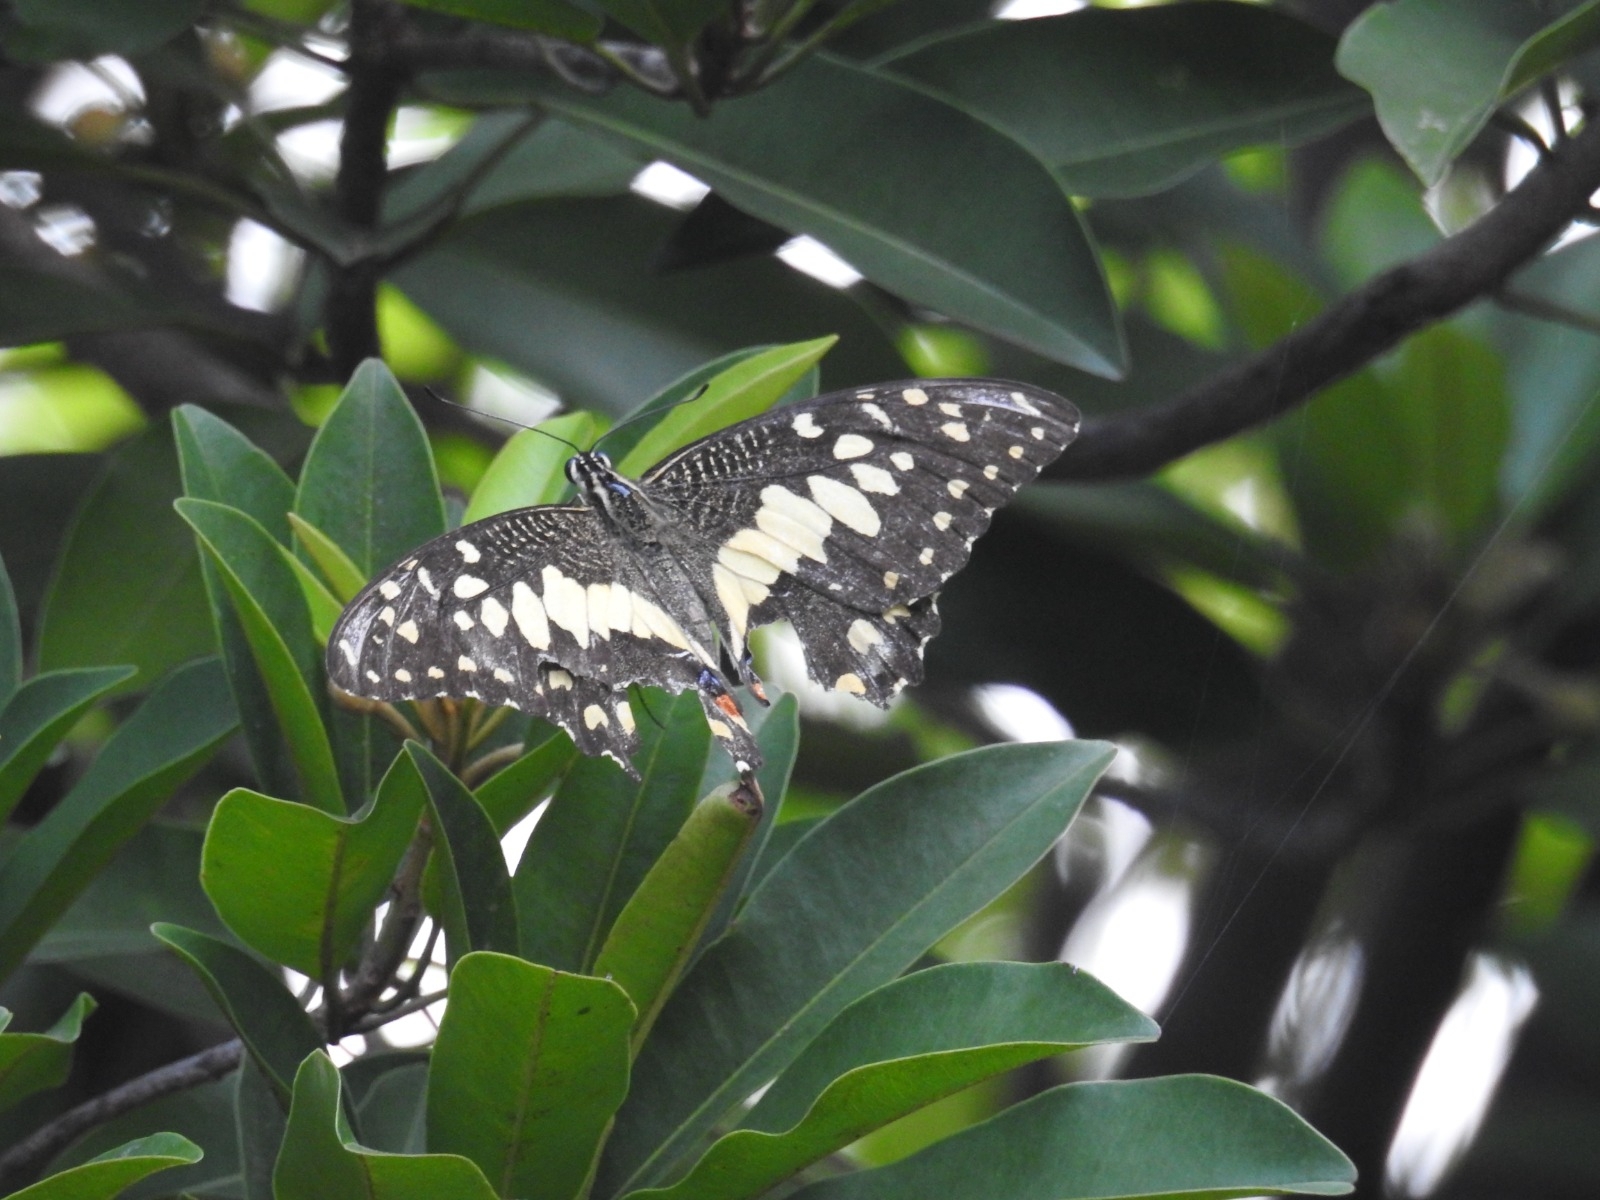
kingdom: Animalia
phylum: Arthropoda
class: Insecta
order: Lepidoptera
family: Papilionidae
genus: Papilio
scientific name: Papilio demoleus
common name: Lime butterfly
